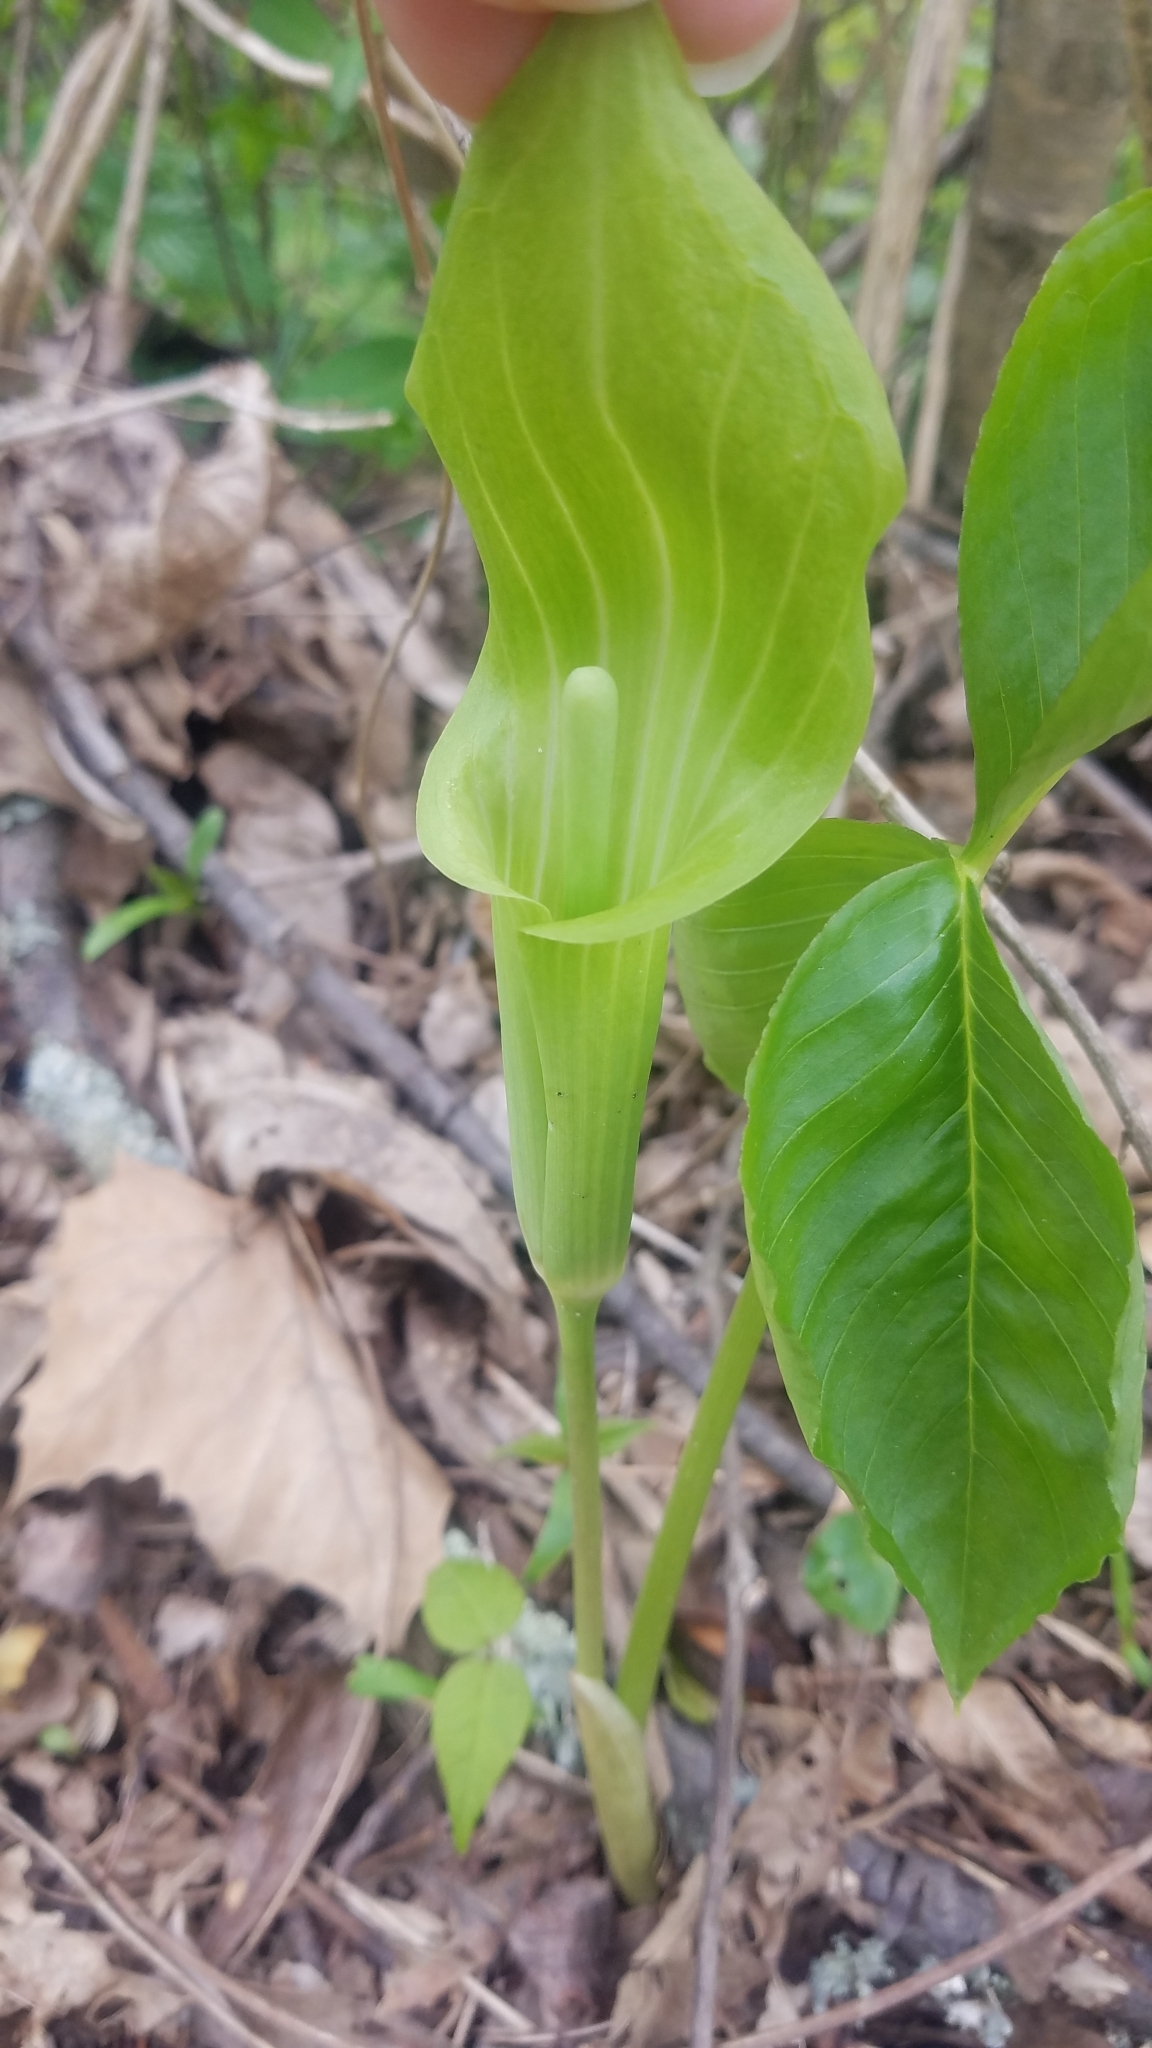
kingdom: Plantae
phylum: Tracheophyta
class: Liliopsida
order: Alismatales
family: Araceae
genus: Arisaema
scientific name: Arisaema triphyllum
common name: Jack-in-the-pulpit
